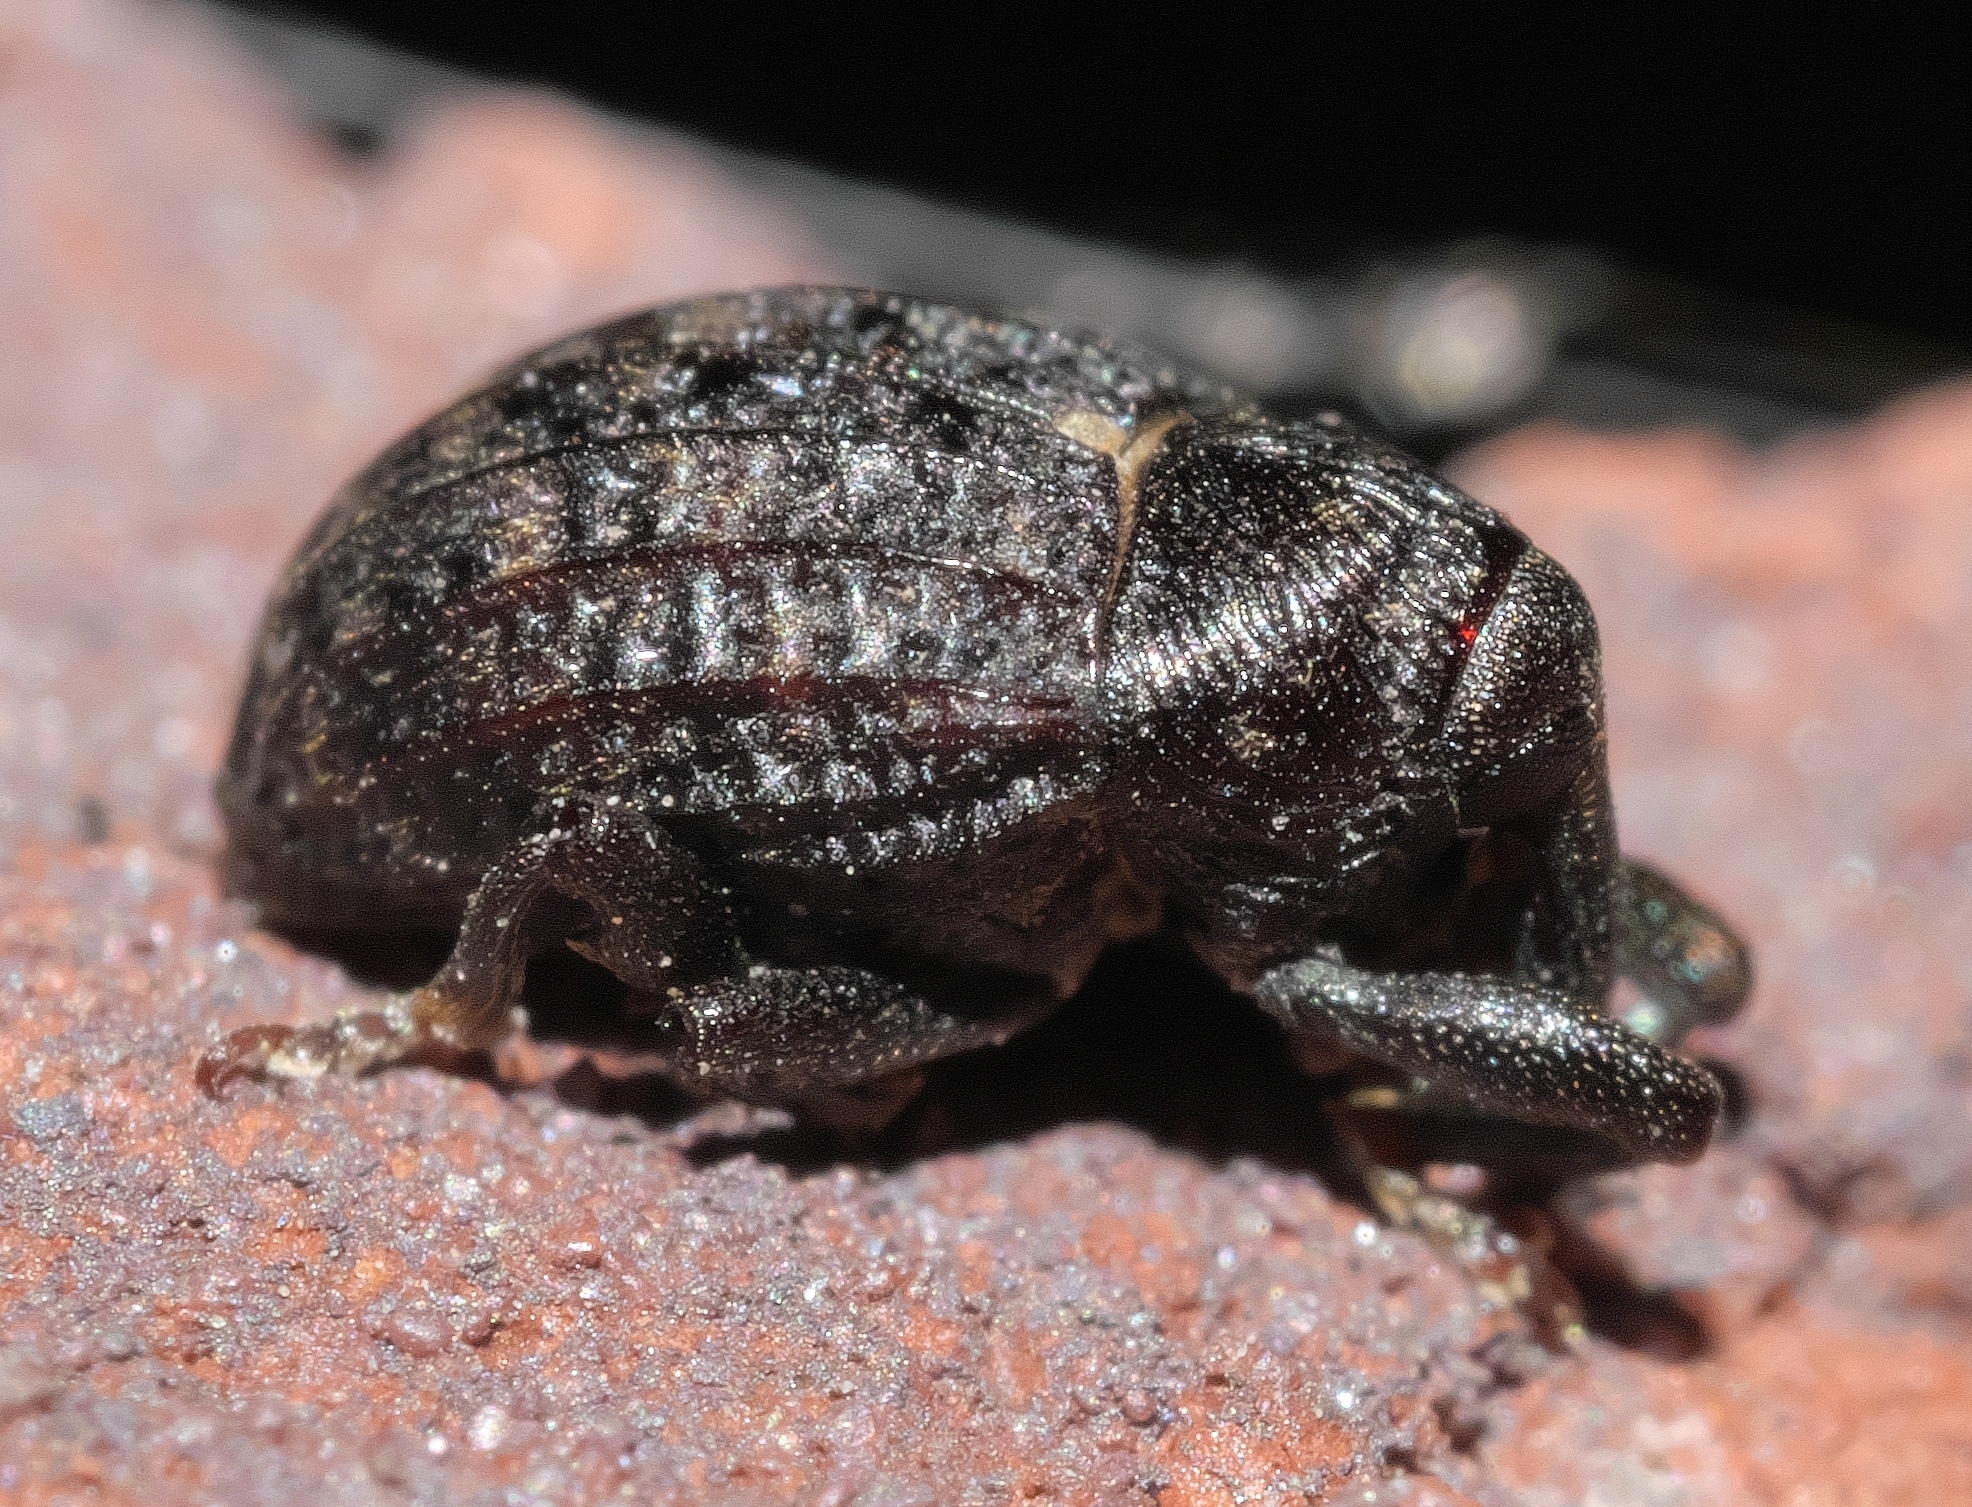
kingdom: Animalia
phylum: Arthropoda
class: Insecta
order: Coleoptera
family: Curculionidae
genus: Rhyssomatus
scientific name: Rhyssomatus palmacollis
